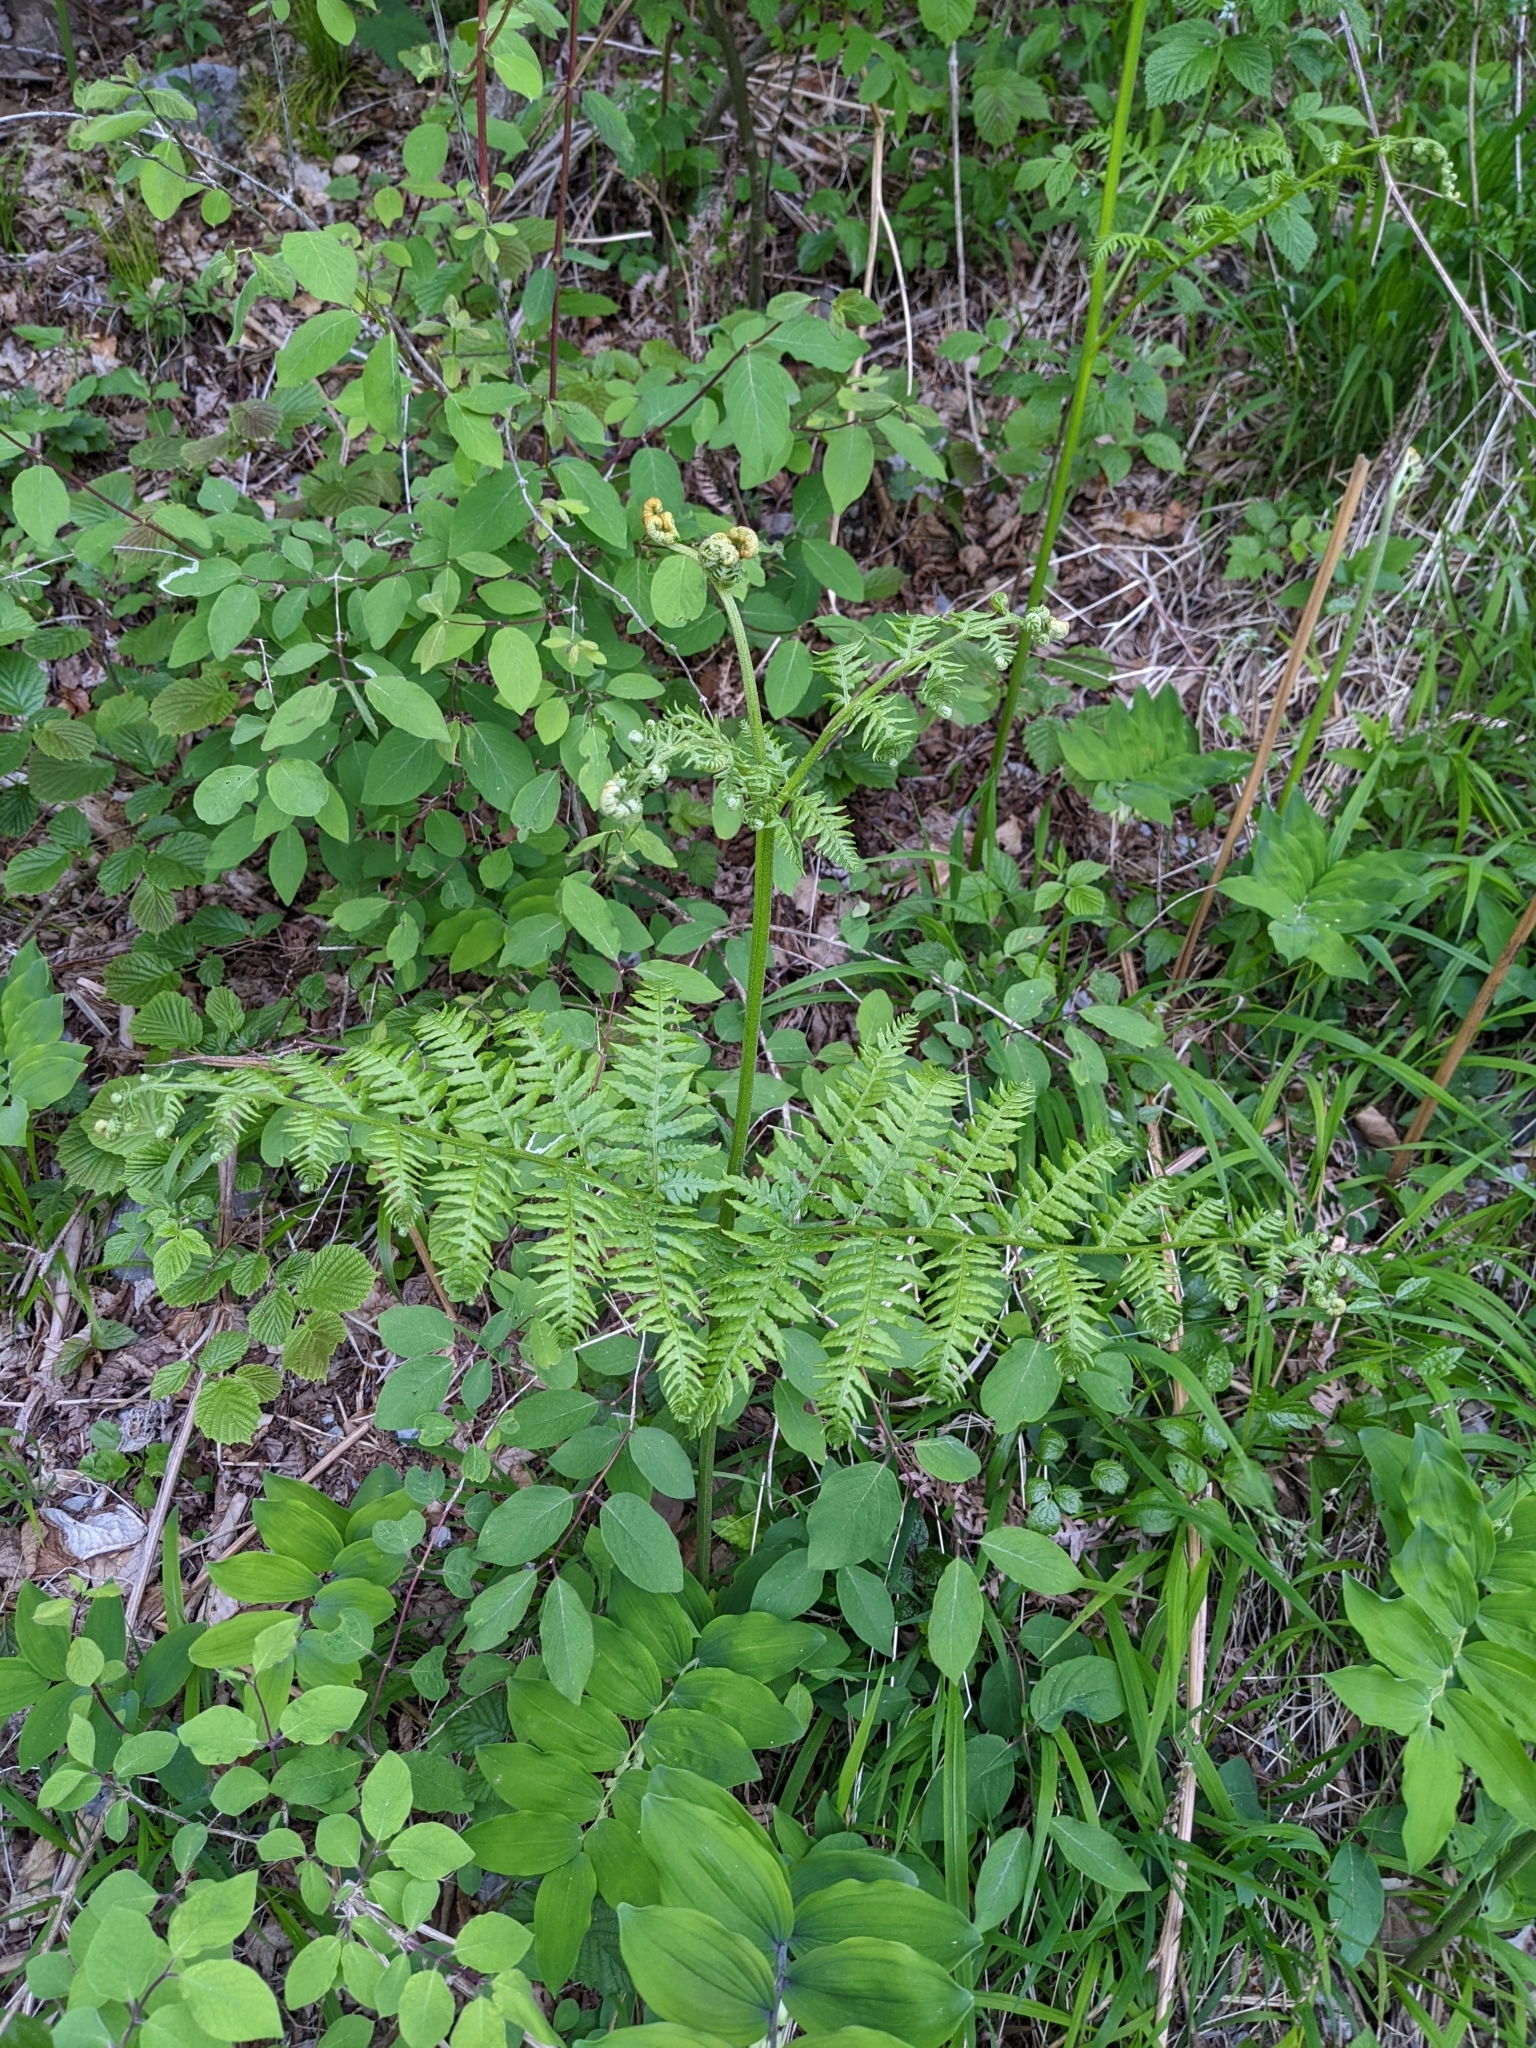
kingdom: Plantae
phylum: Tracheophyta
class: Polypodiopsida
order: Polypodiales
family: Dennstaedtiaceae
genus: Pteridium
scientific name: Pteridium aquilinum
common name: Bracken
